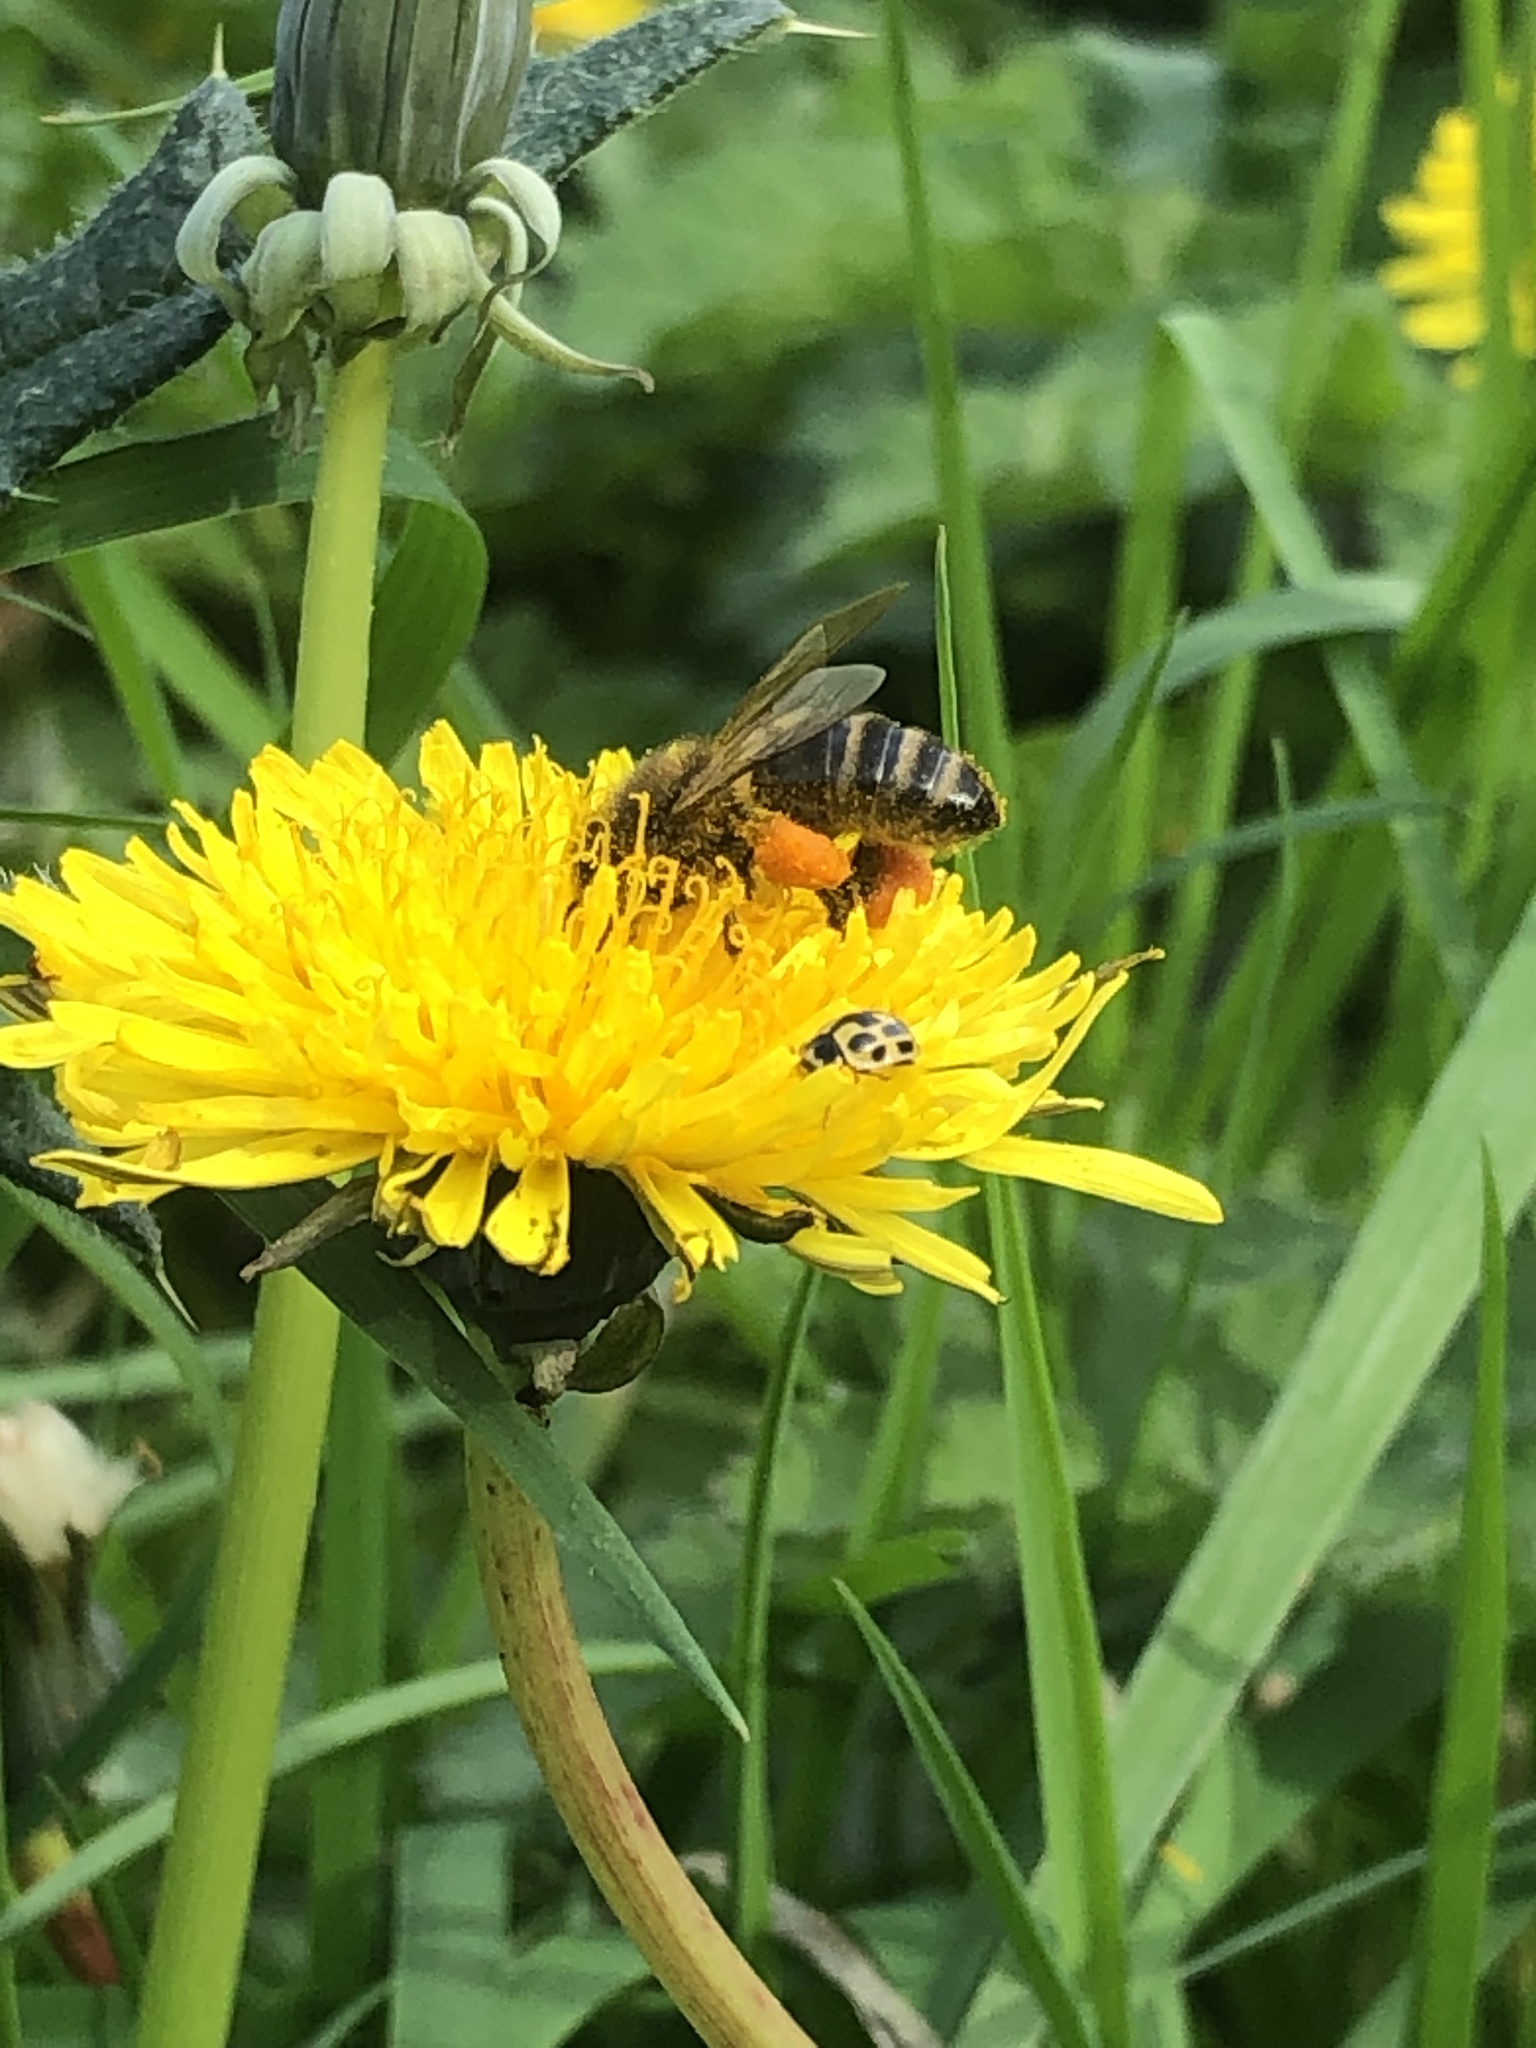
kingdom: Animalia
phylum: Arthropoda
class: Insecta
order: Coleoptera
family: Coccinellidae
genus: Propylaea
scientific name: Propylaea quatuordecimpunctata
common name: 14-spotted ladybird beetle
